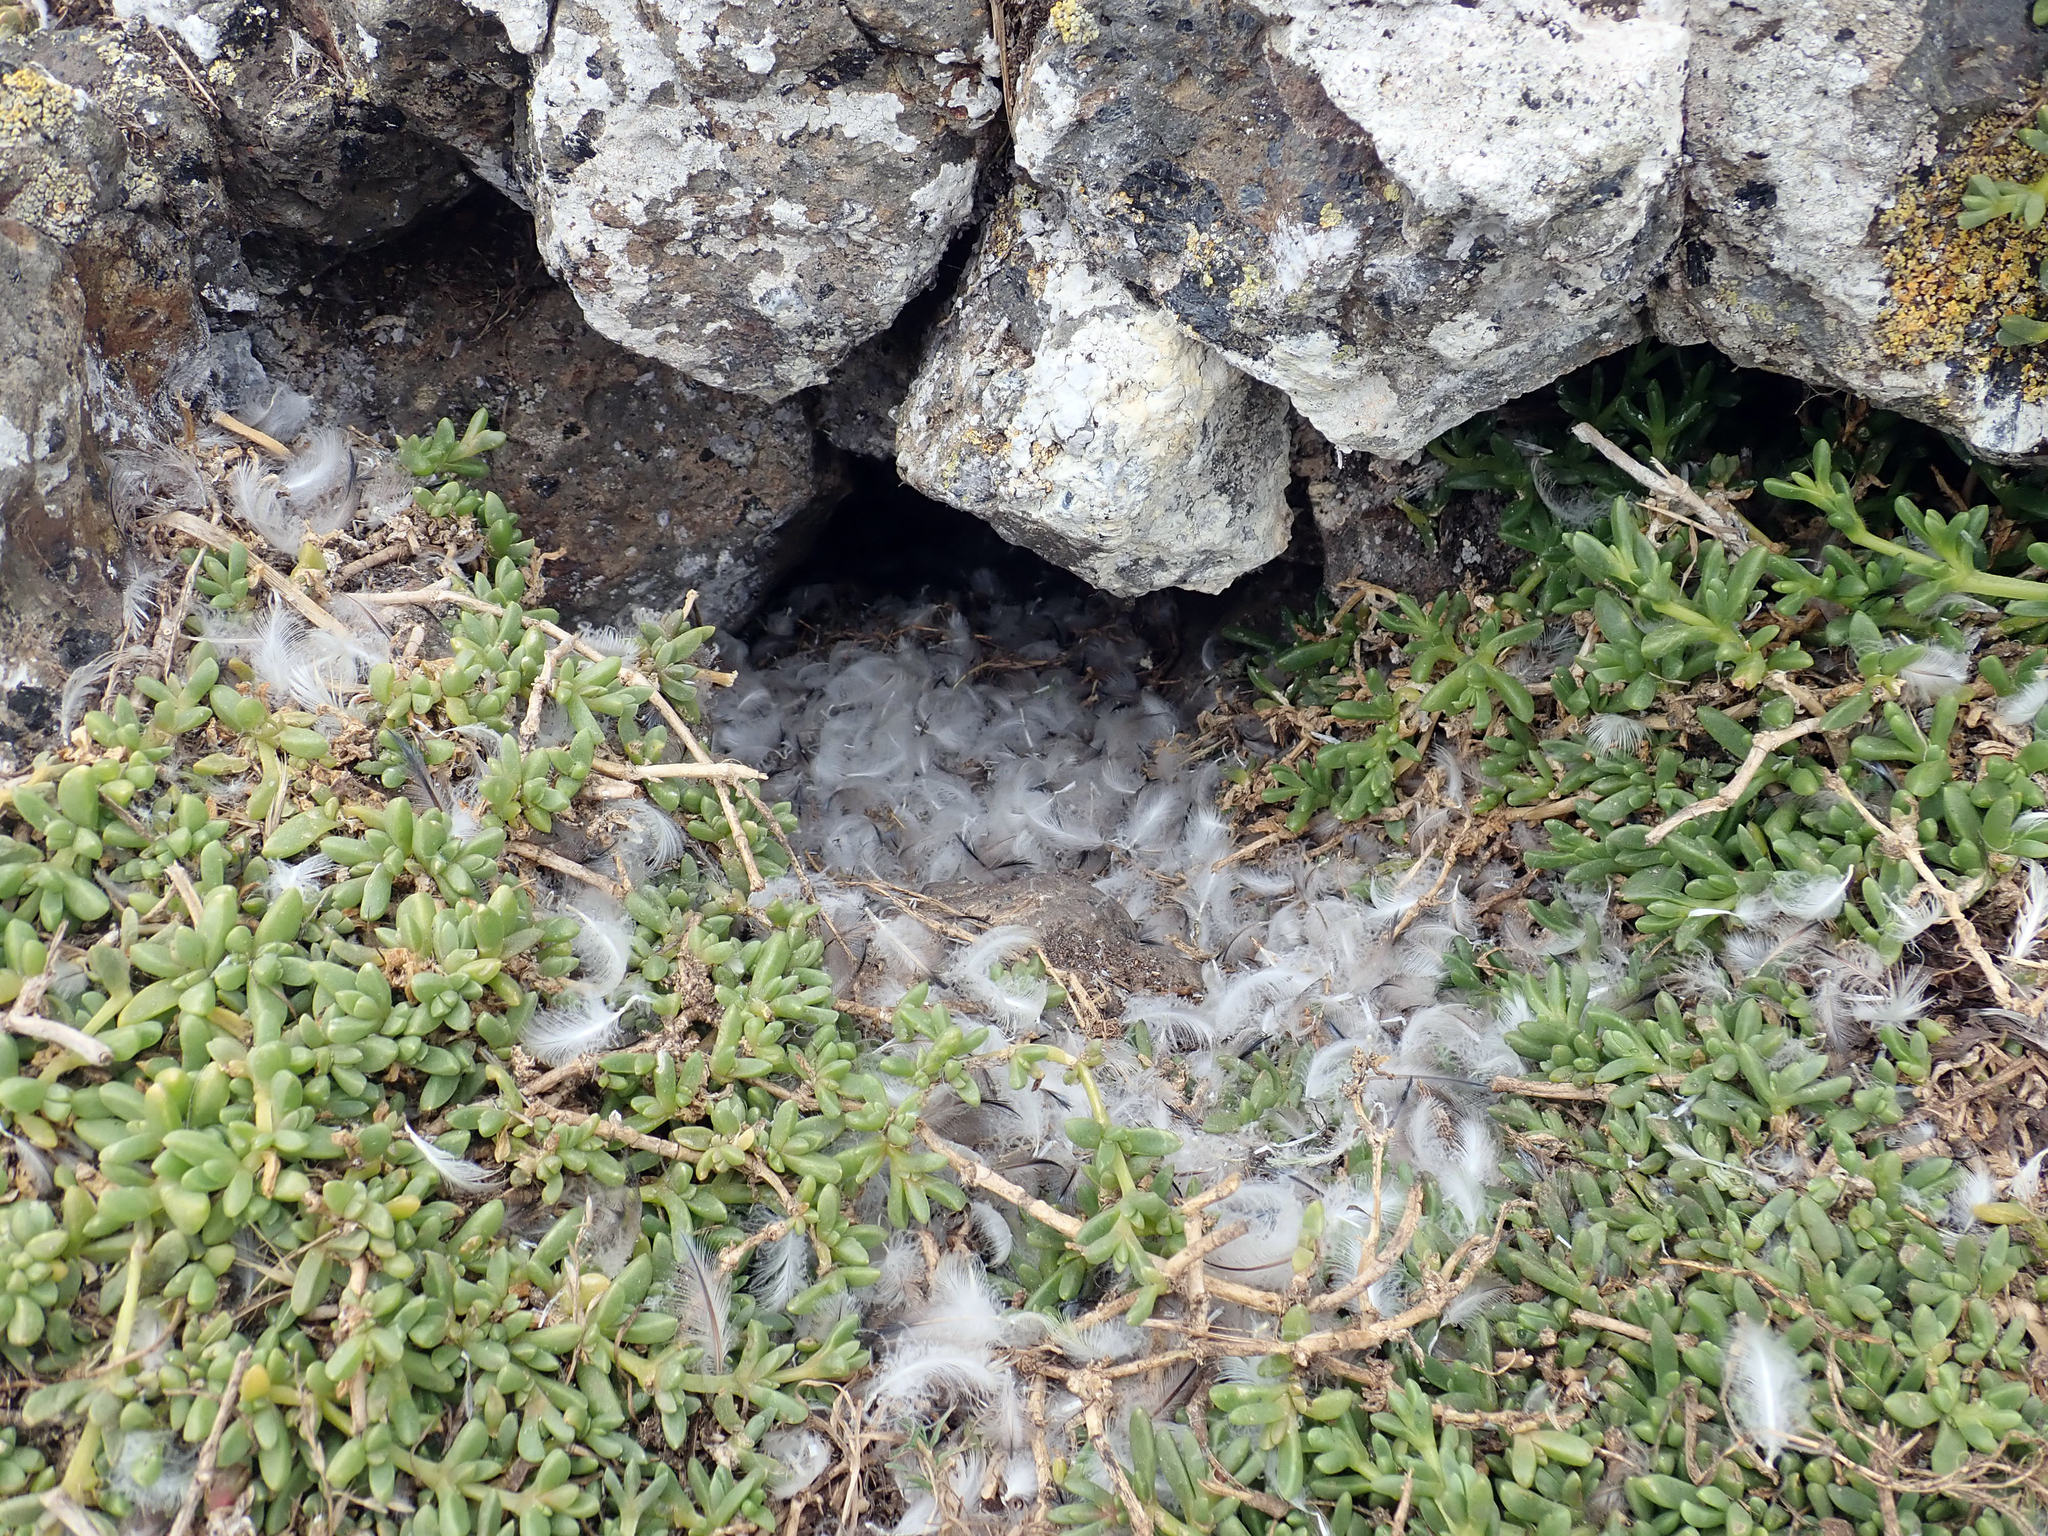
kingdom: Animalia
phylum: Chordata
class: Aves
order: Sphenisciformes
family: Spheniscidae
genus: Eudyptula
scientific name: Eudyptula minor
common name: Little penguin
